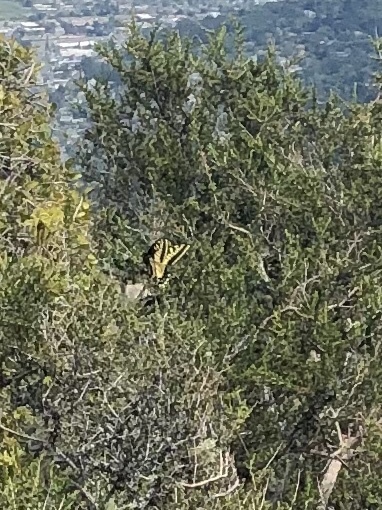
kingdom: Animalia
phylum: Arthropoda
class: Insecta
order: Lepidoptera
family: Papilionidae
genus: Papilio
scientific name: Papilio zelicaon
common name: Anise swallowtail
